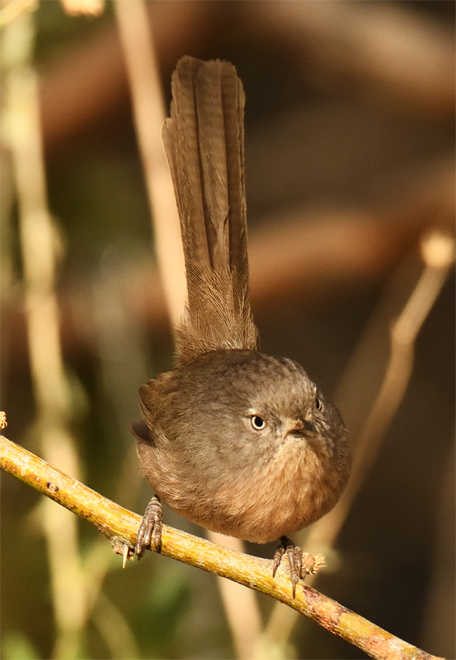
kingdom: Animalia
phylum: Chordata
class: Aves
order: Passeriformes
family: Sylviidae
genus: Chamaea
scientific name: Chamaea fasciata
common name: Wrentit
